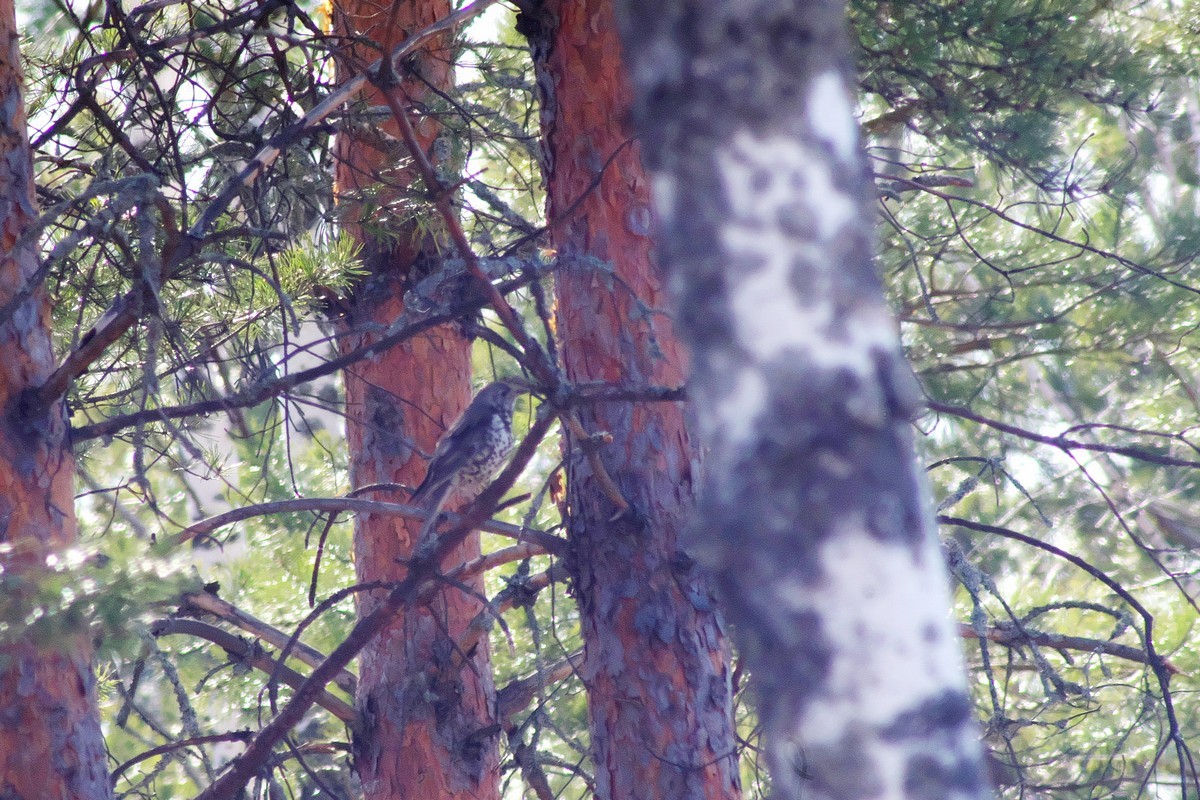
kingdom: Animalia
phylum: Chordata
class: Aves
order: Passeriformes
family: Turdidae
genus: Turdus
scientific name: Turdus viscivorus
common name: Mistle thrush
